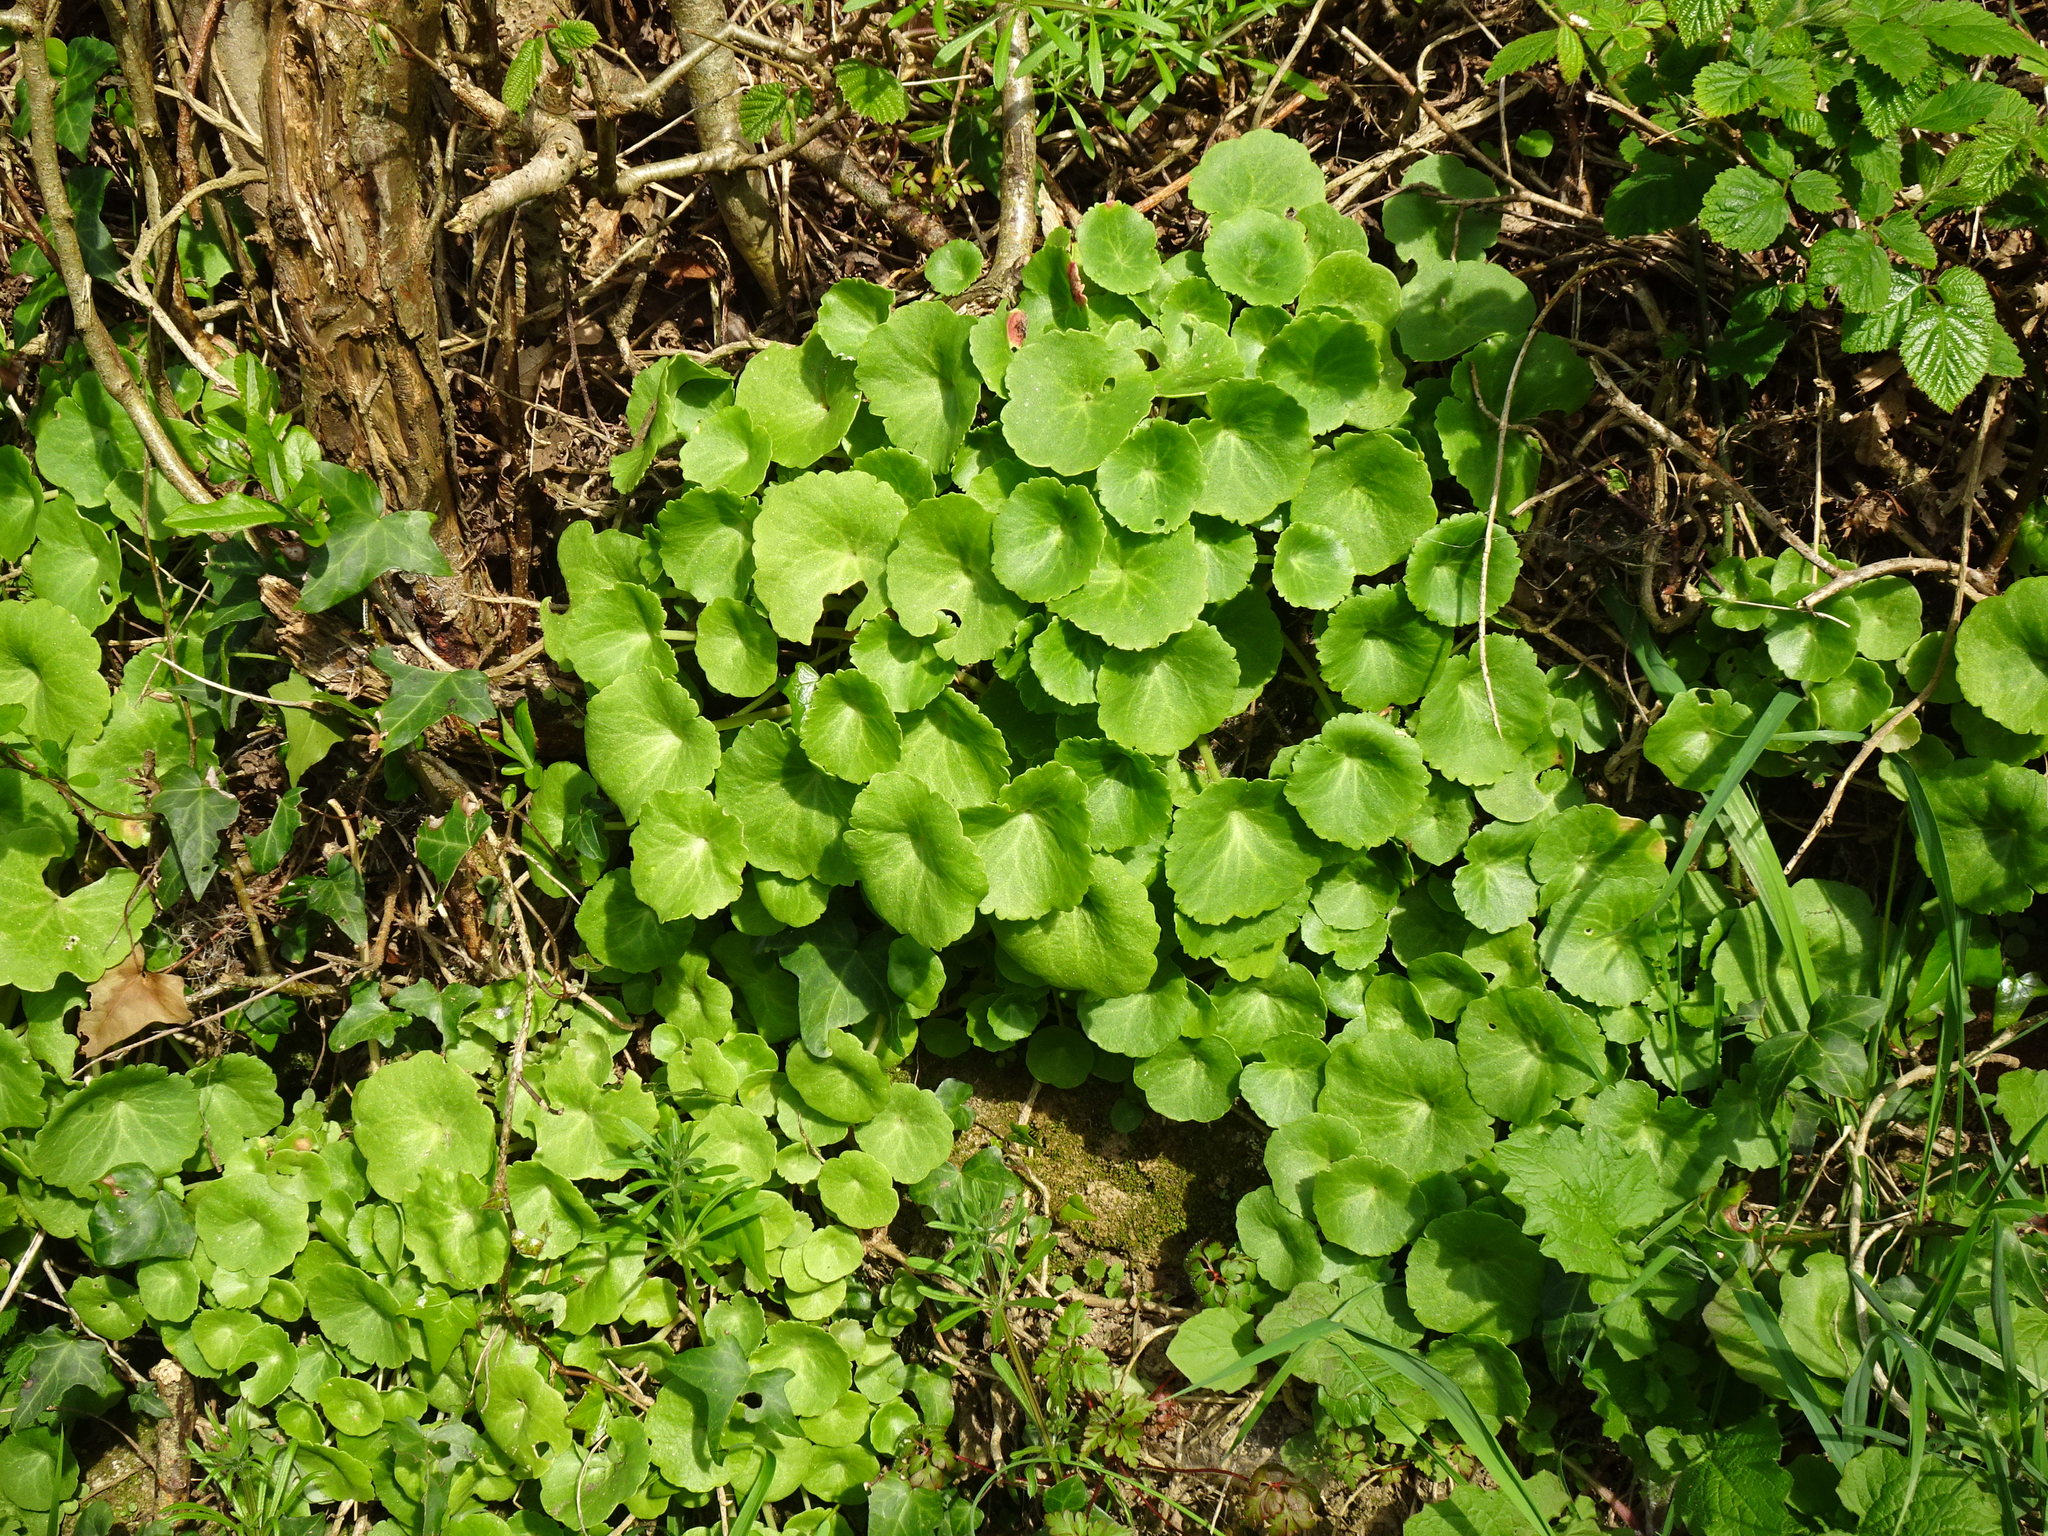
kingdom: Plantae
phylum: Tracheophyta
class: Magnoliopsida
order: Saxifragales
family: Crassulaceae
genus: Umbilicus
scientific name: Umbilicus rupestris
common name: Navelwort
